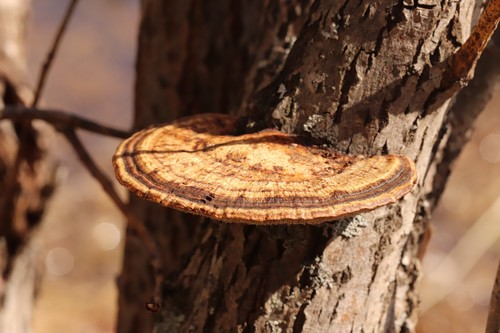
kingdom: Fungi
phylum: Basidiomycota
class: Agaricomycetes
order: Polyporales
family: Polyporaceae
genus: Daedaleopsis
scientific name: Daedaleopsis confragosa
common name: Blushing bracket
